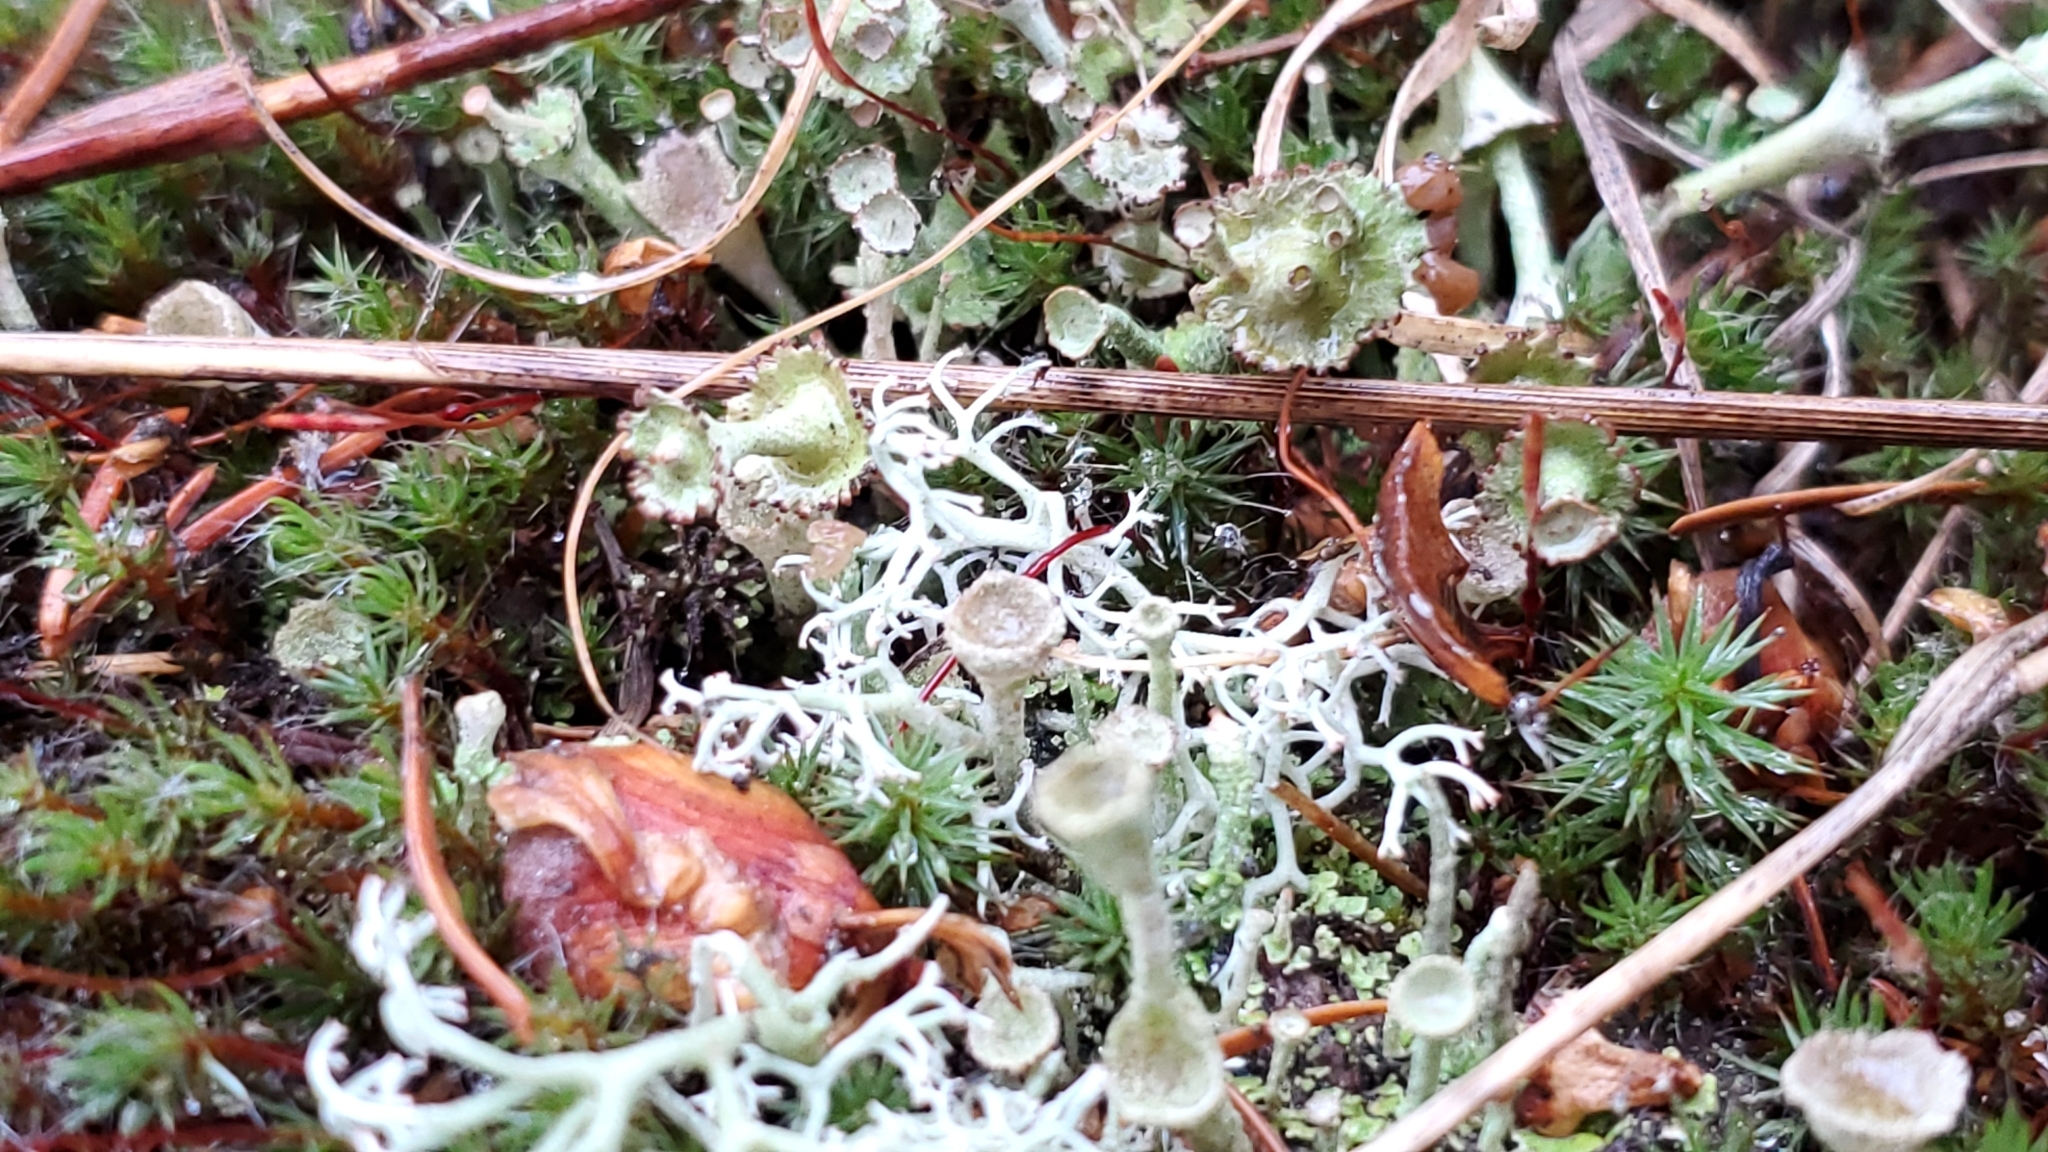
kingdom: Fungi
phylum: Ascomycota
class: Lecanoromycetes
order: Lecanorales
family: Cladoniaceae
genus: Cladonia
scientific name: Cladonia cervicornis
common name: Browned pixie-cup lichen
